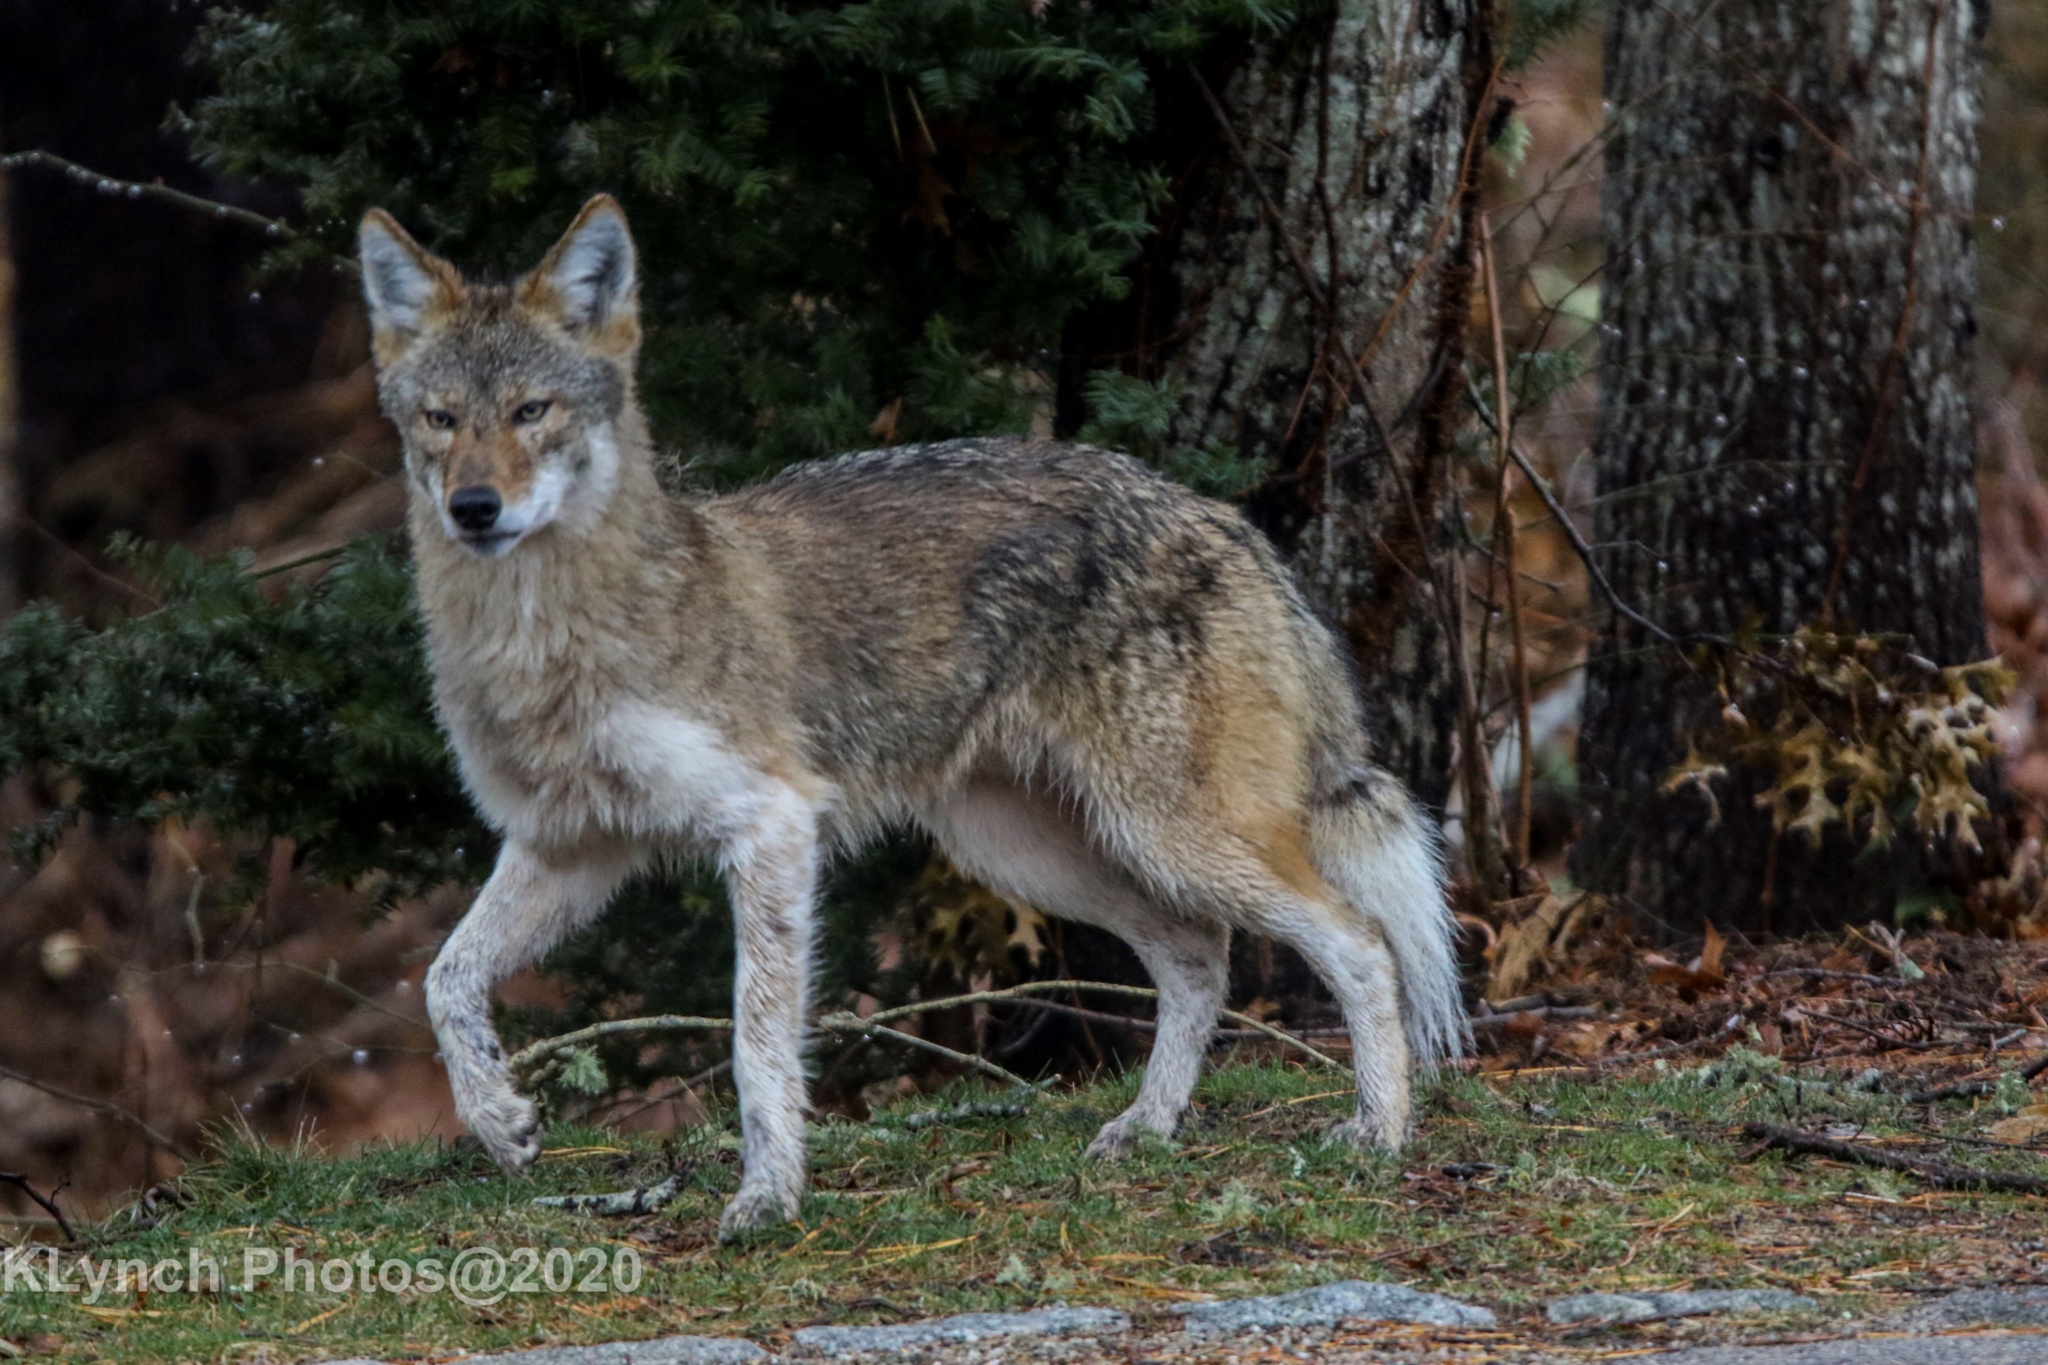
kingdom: Animalia
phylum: Chordata
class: Mammalia
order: Carnivora
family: Canidae
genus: Canis
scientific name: Canis latrans
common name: Coyote
